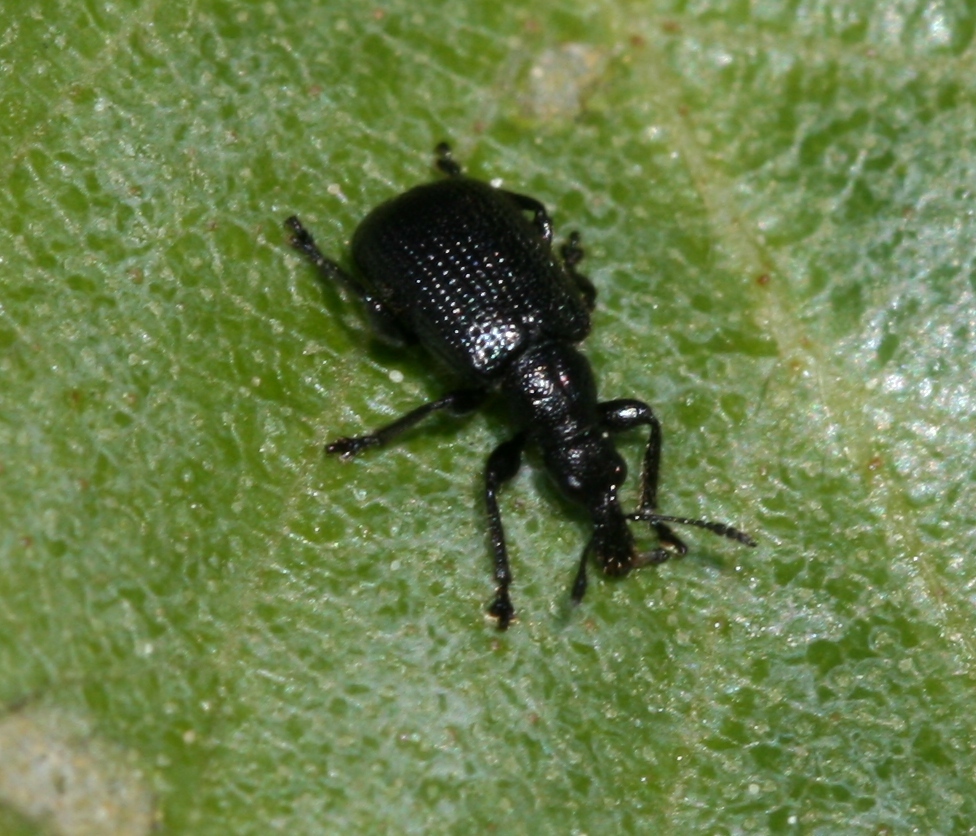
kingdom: Animalia
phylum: Arthropoda
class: Insecta
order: Coleoptera
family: Attelabidae
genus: Deporaus
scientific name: Deporaus betulae
